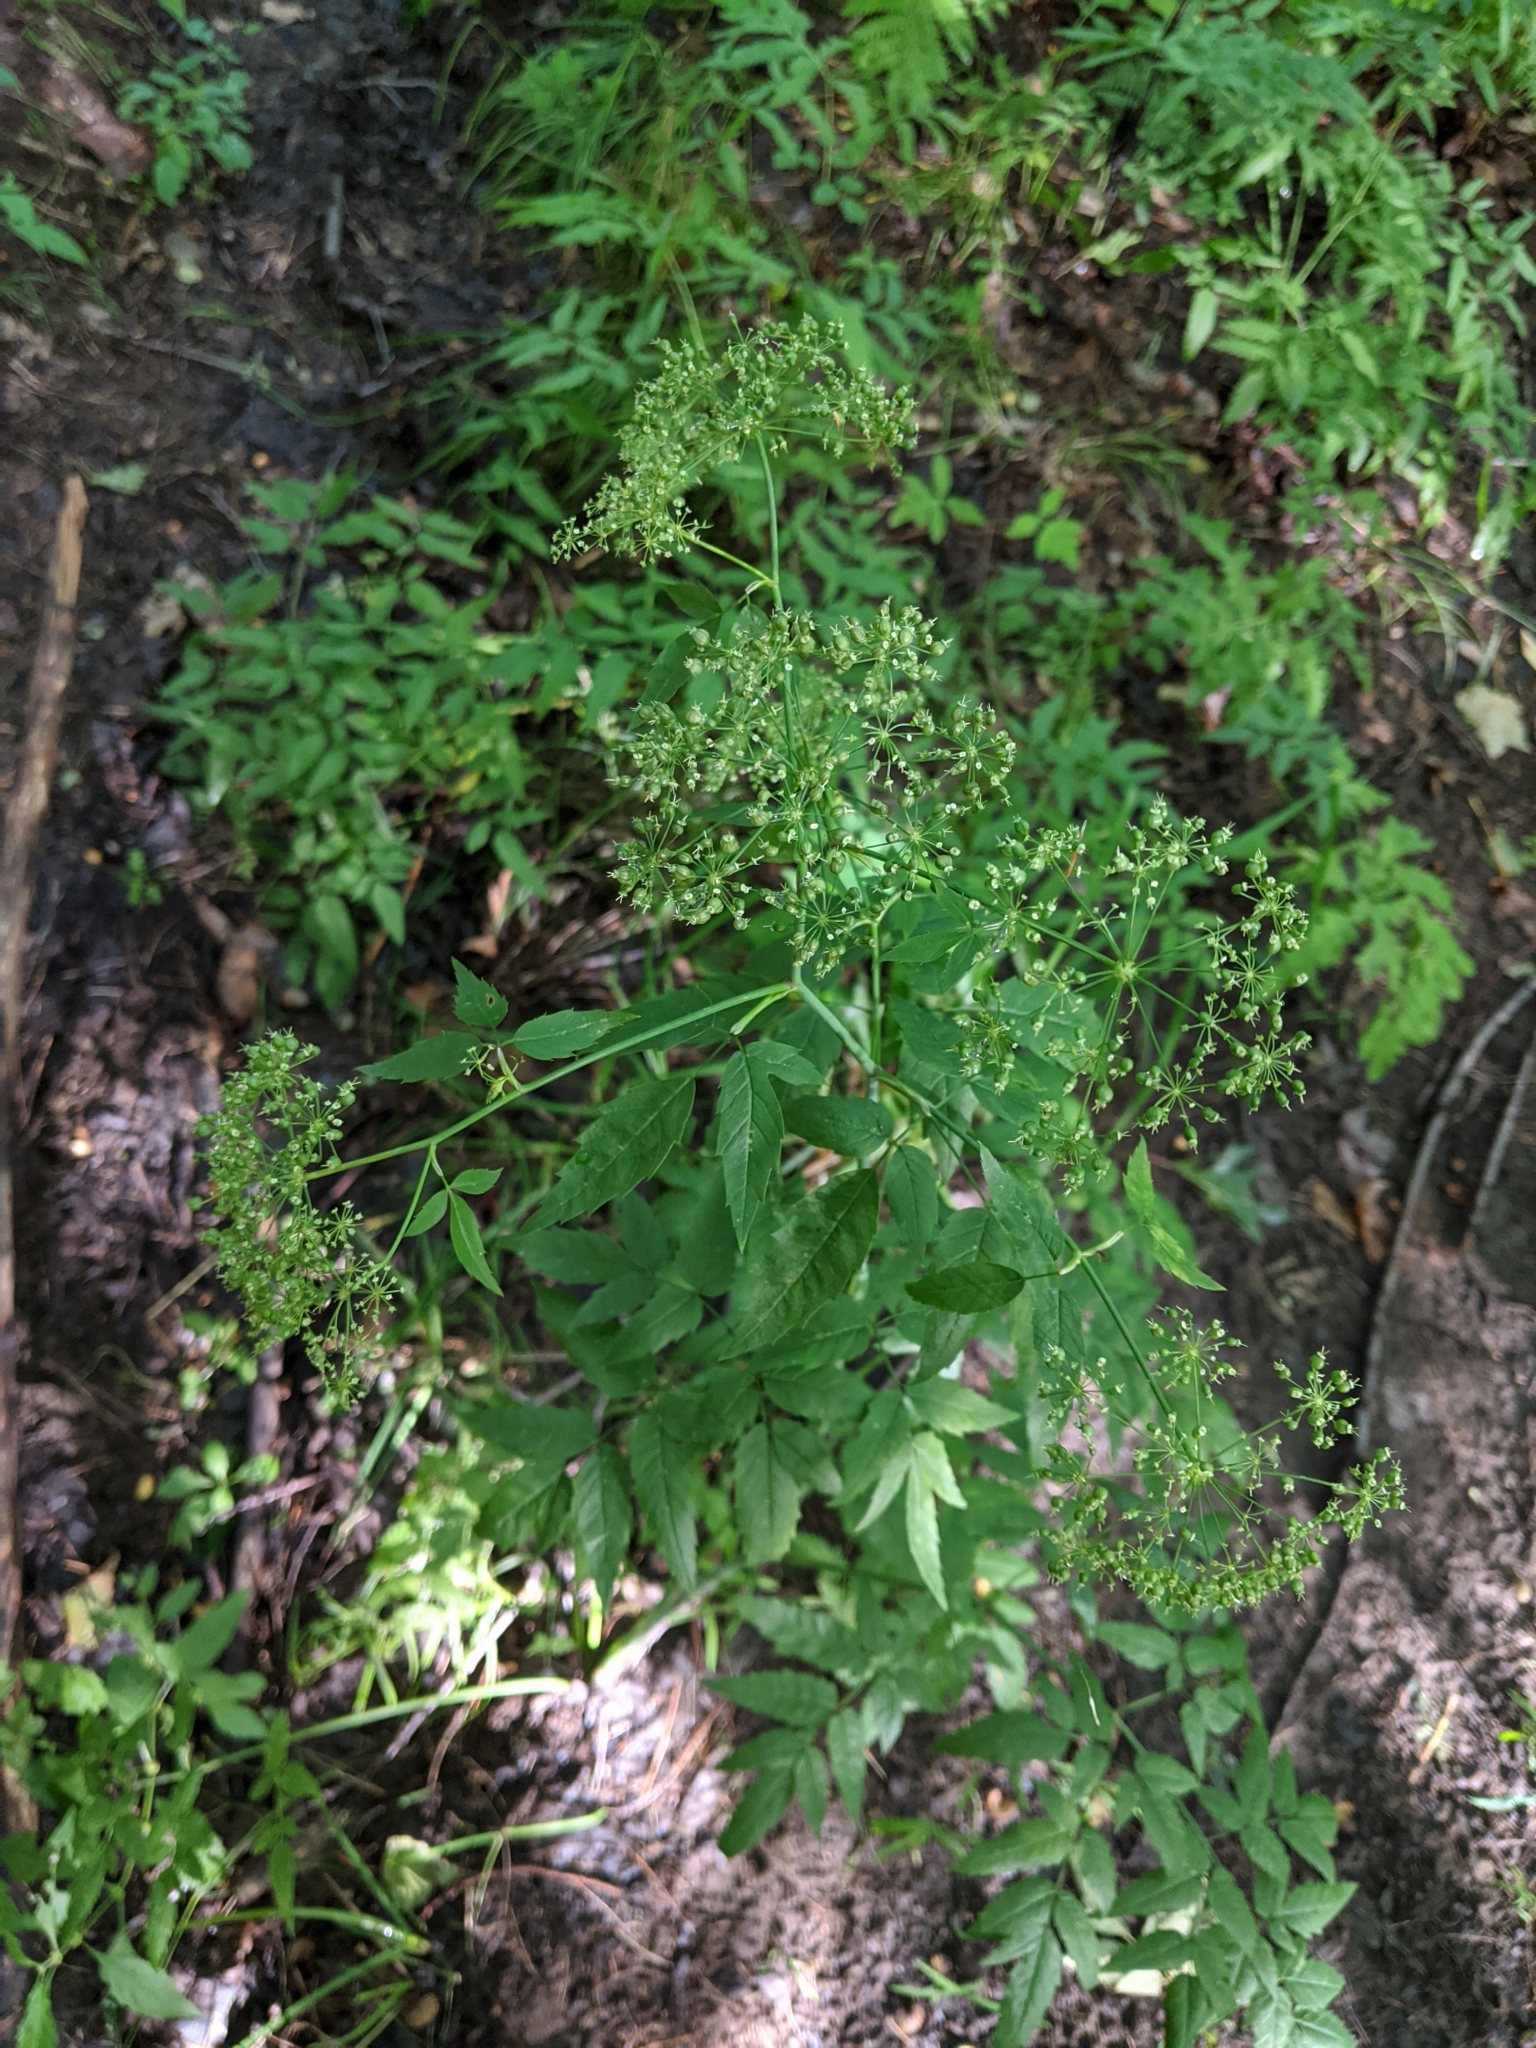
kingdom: Plantae
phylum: Tracheophyta
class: Magnoliopsida
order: Apiales
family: Apiaceae
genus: Cicuta
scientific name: Cicuta maculata
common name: Spotted cowbane
